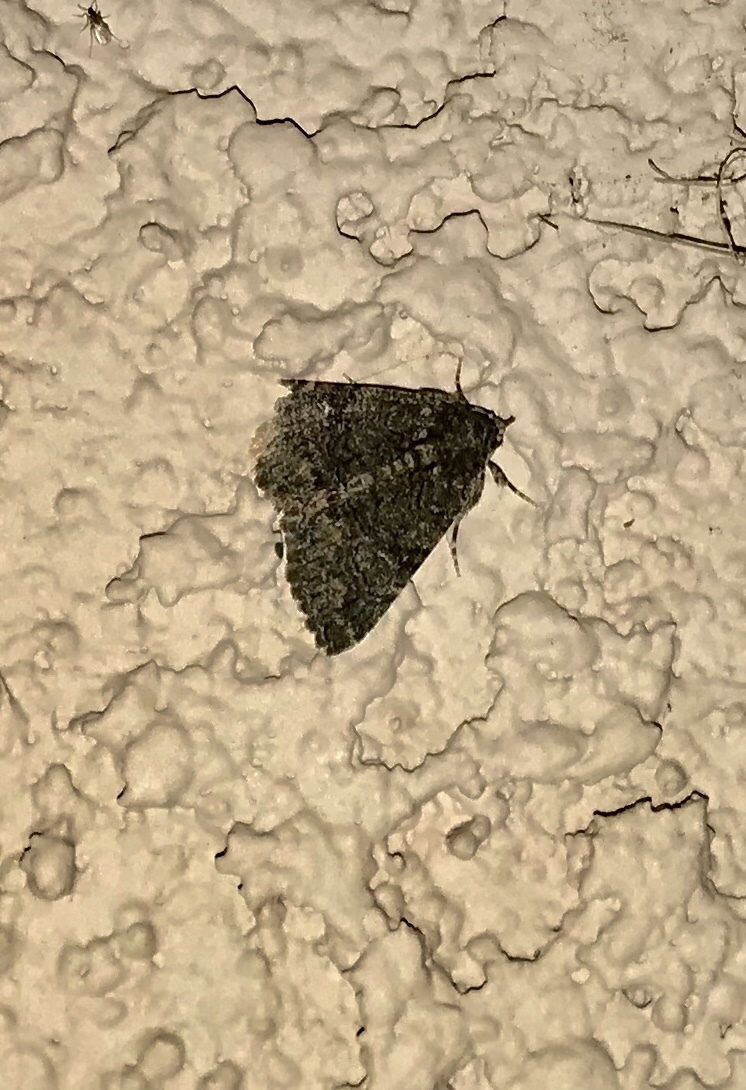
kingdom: Animalia
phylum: Arthropoda
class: Insecta
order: Lepidoptera
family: Erebidae
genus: Elousa
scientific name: Elousa mima
